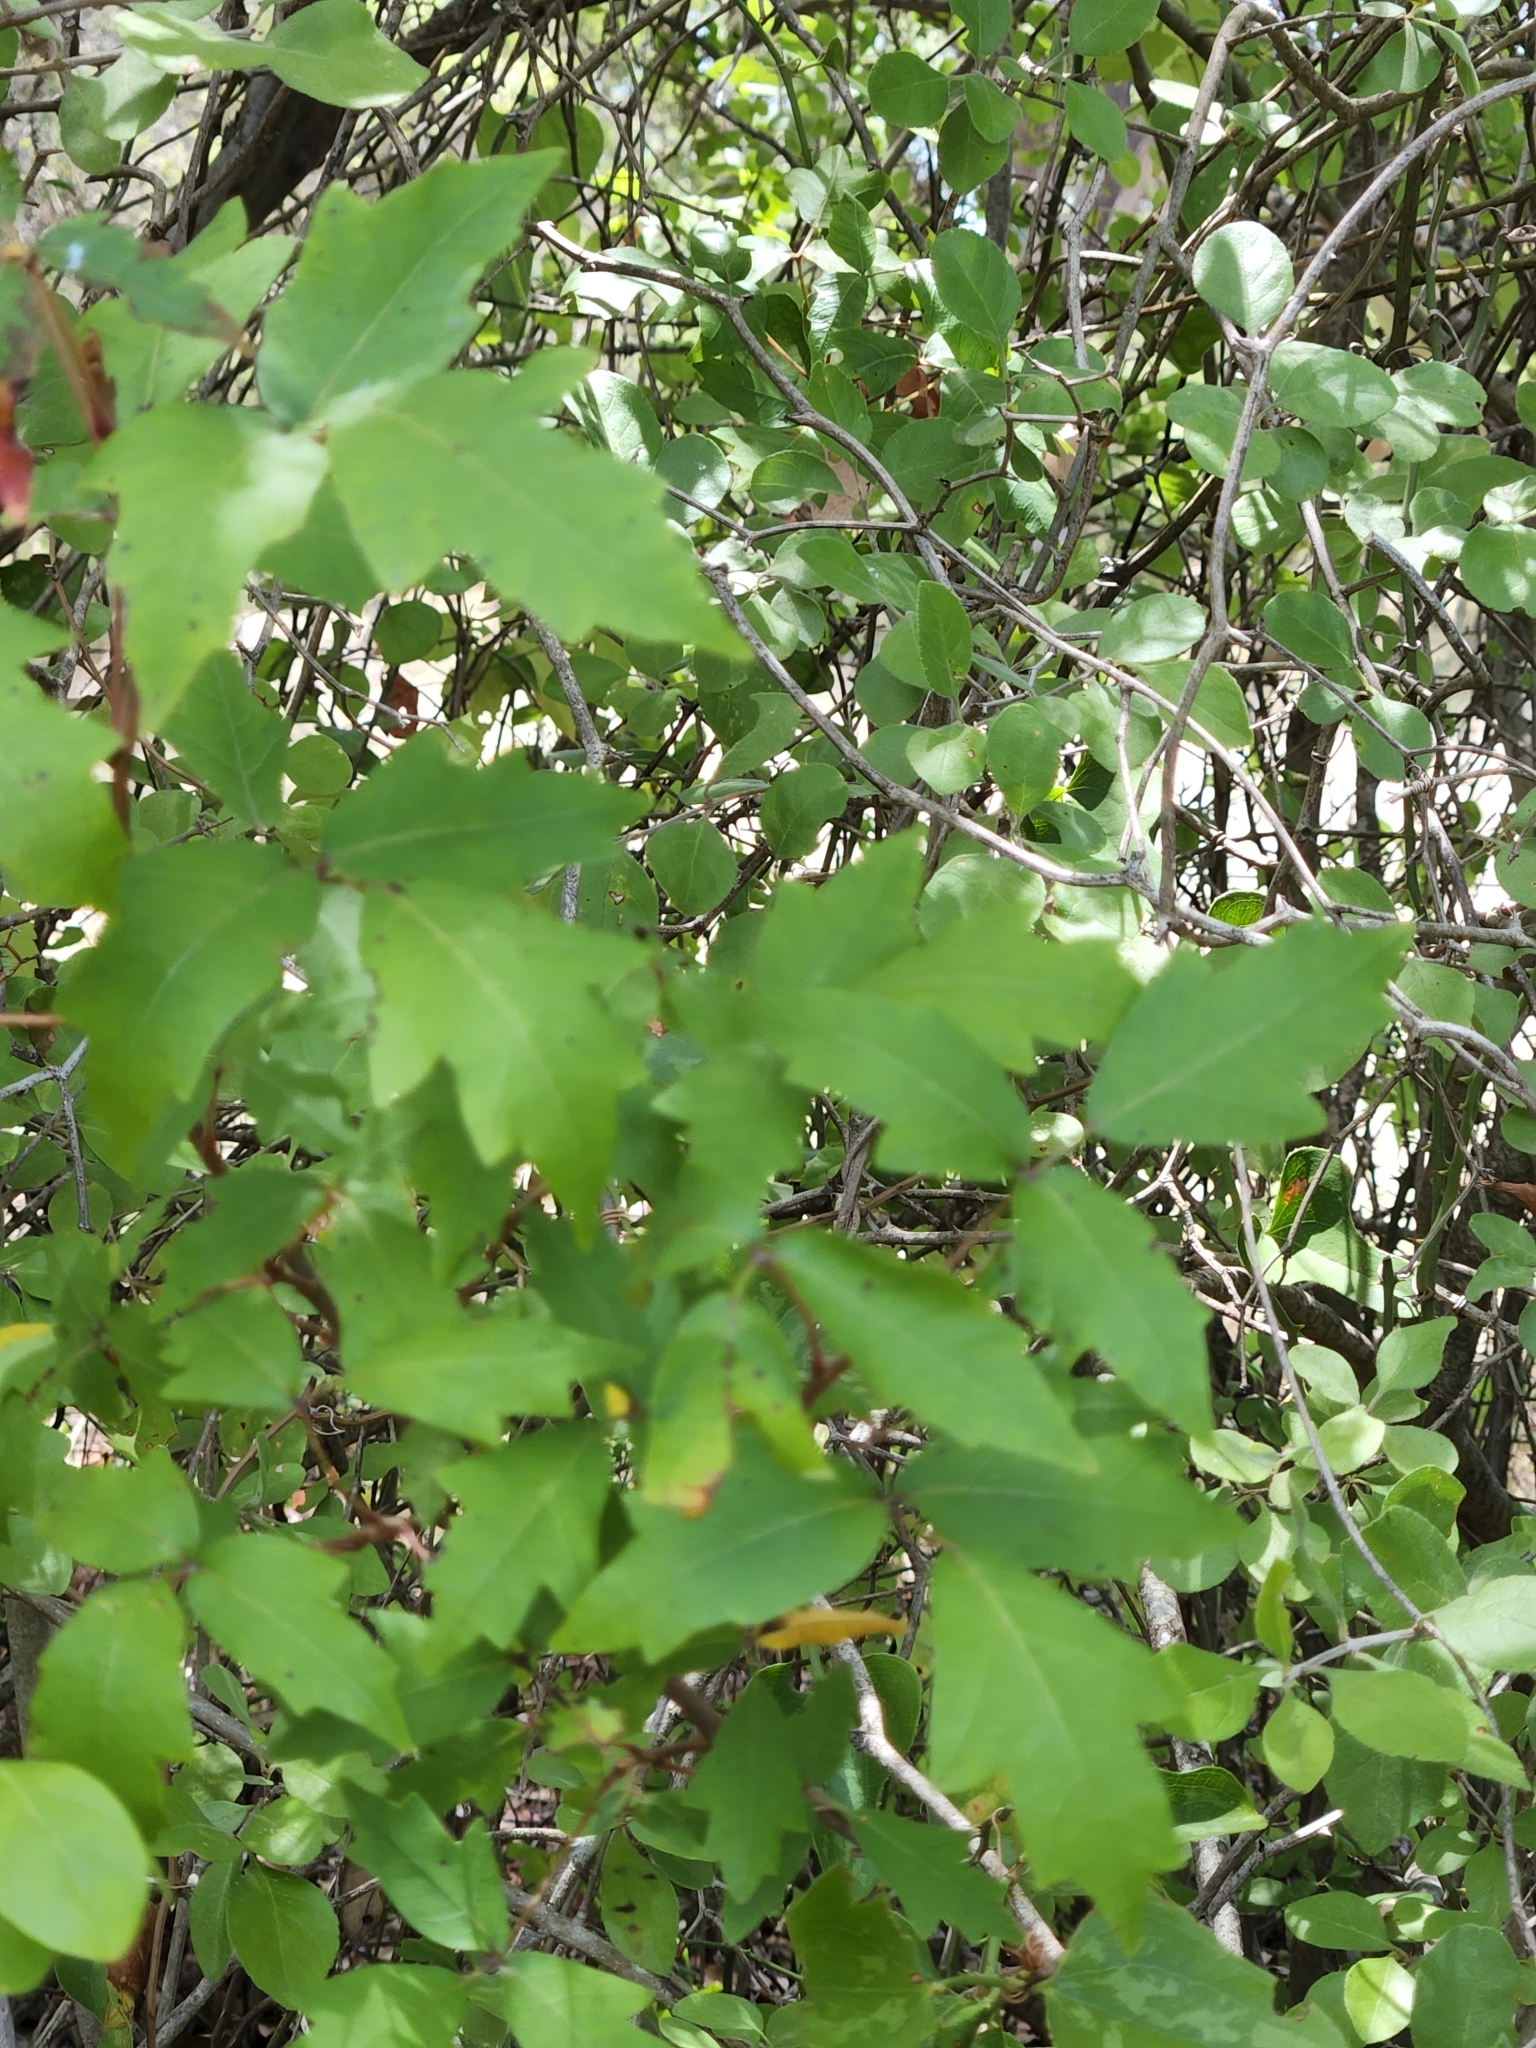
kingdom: Plantae
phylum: Tracheophyta
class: Magnoliopsida
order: Sapindales
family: Anacardiaceae
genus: Toxicodendron
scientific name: Toxicodendron radicans
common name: Poison ivy
